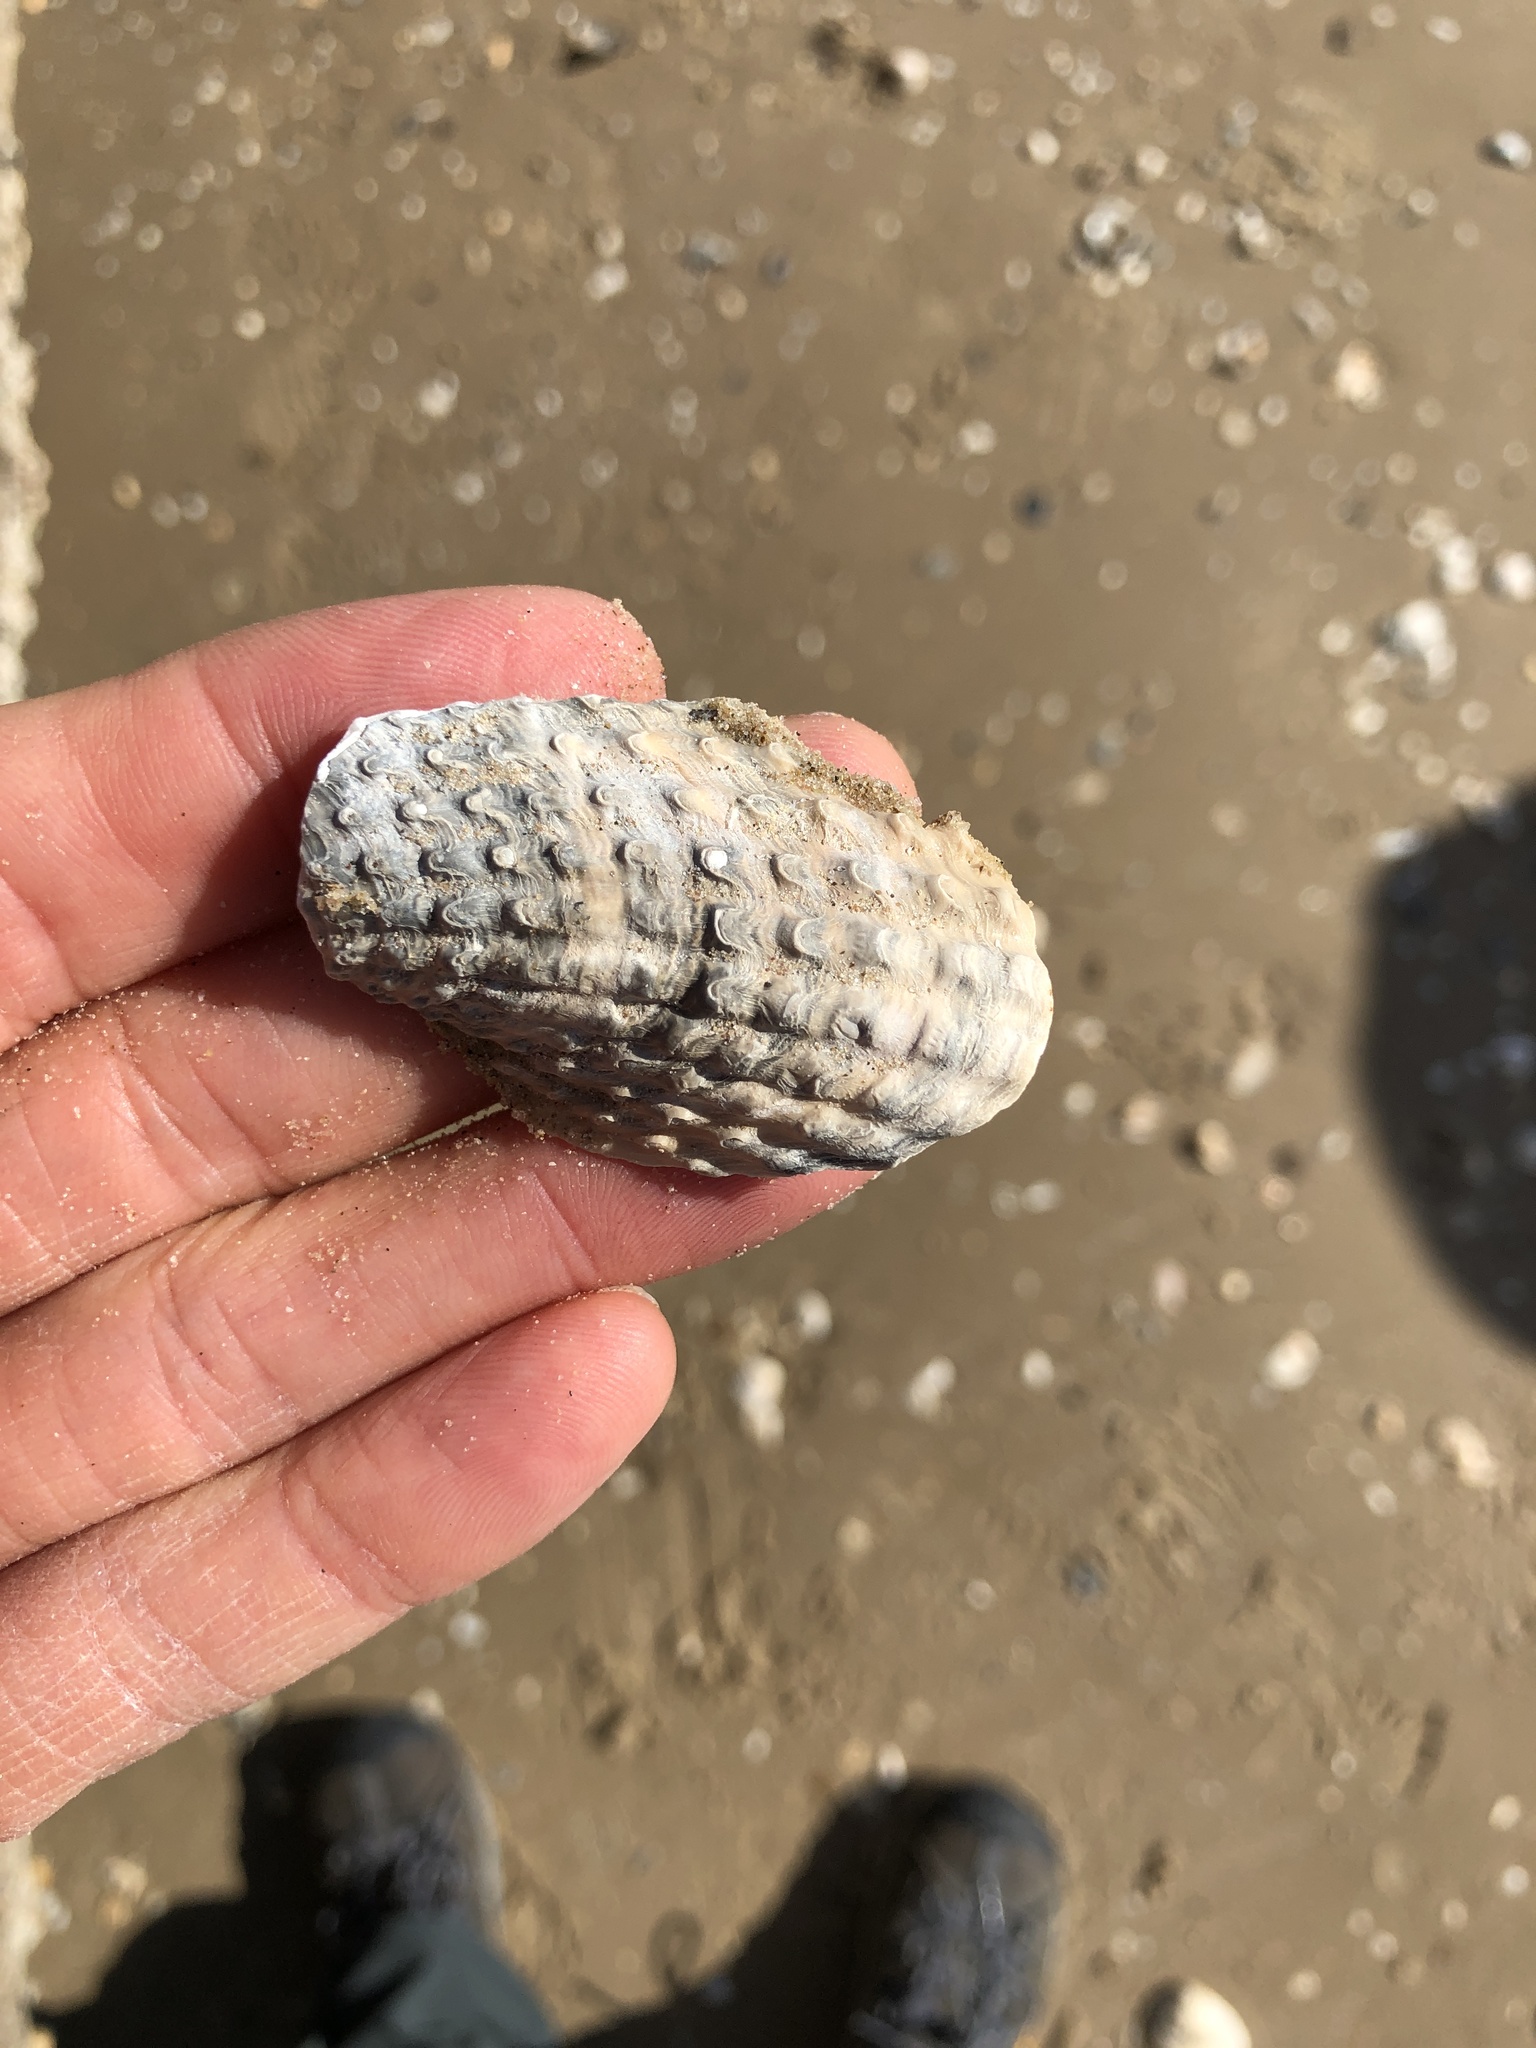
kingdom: Animalia
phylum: Mollusca
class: Bivalvia
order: Myida
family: Pholadidae
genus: Cyrtopleura
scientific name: Cyrtopleura costata
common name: Angel wing
